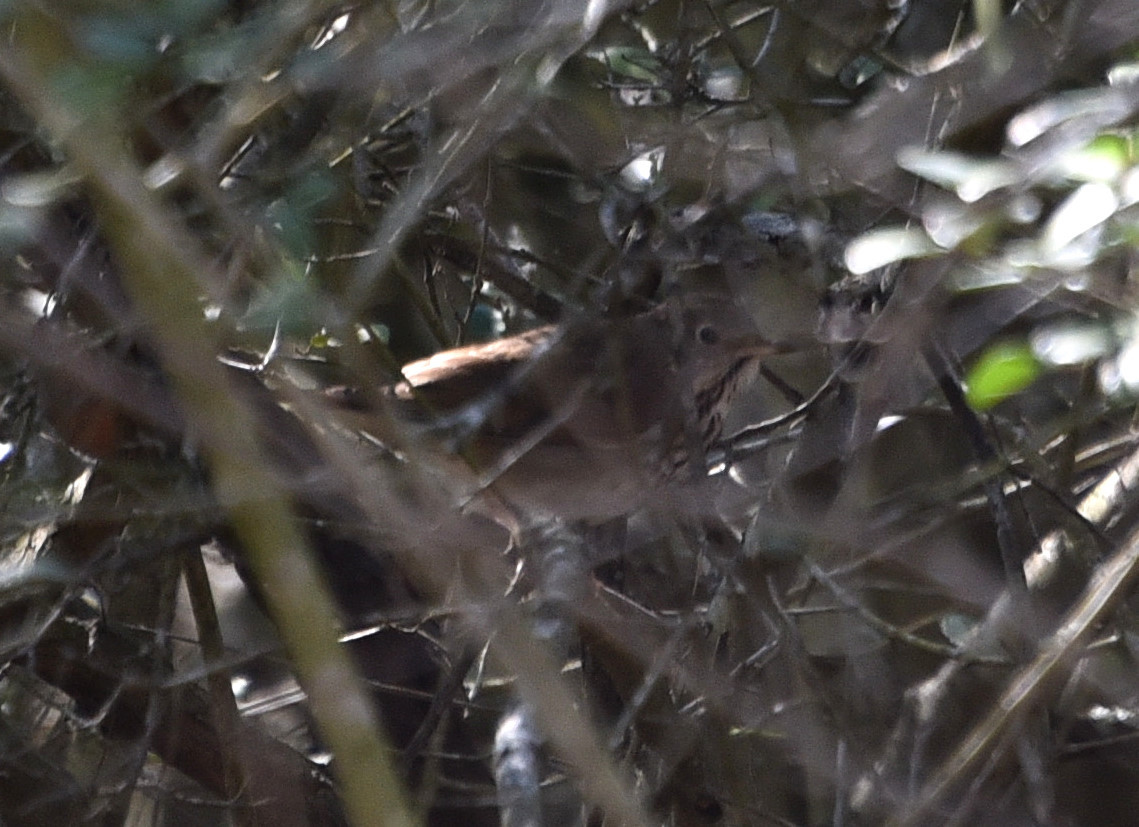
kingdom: Animalia
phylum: Chordata
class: Aves
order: Passeriformes
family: Turdidae
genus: Catharus
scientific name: Catharus guttatus
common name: Hermit thrush
